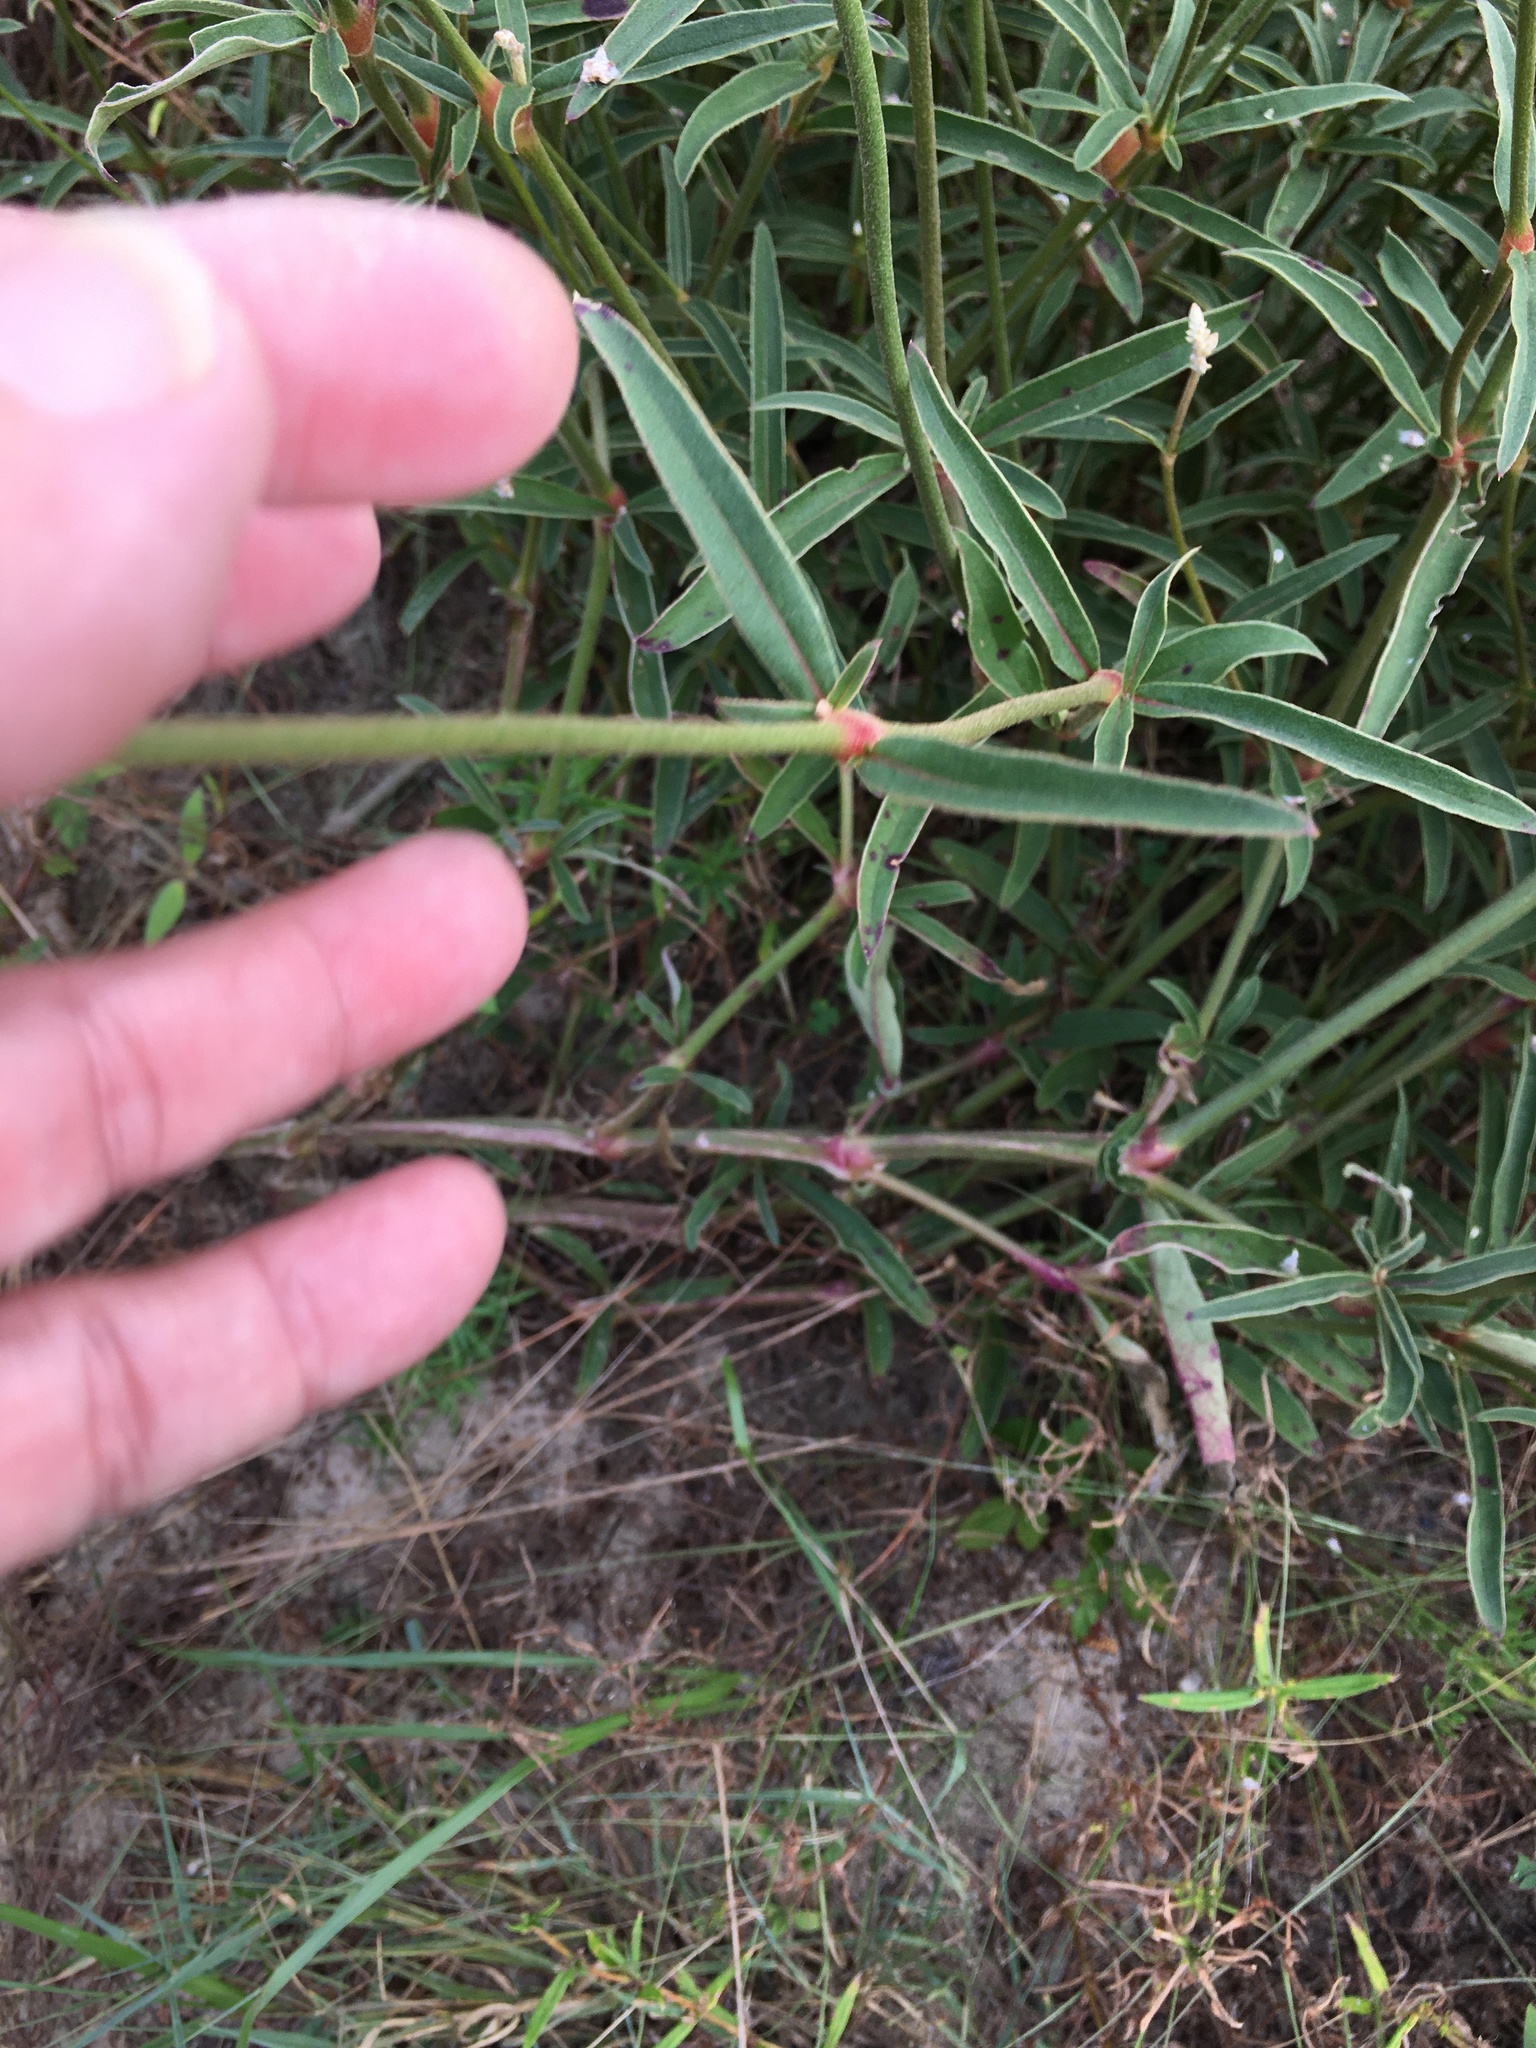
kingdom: Plantae
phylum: Tracheophyta
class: Magnoliopsida
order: Caryophyllales
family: Amaranthaceae
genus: Froelichia
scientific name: Froelichia floridana
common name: Florida snake-cotton
